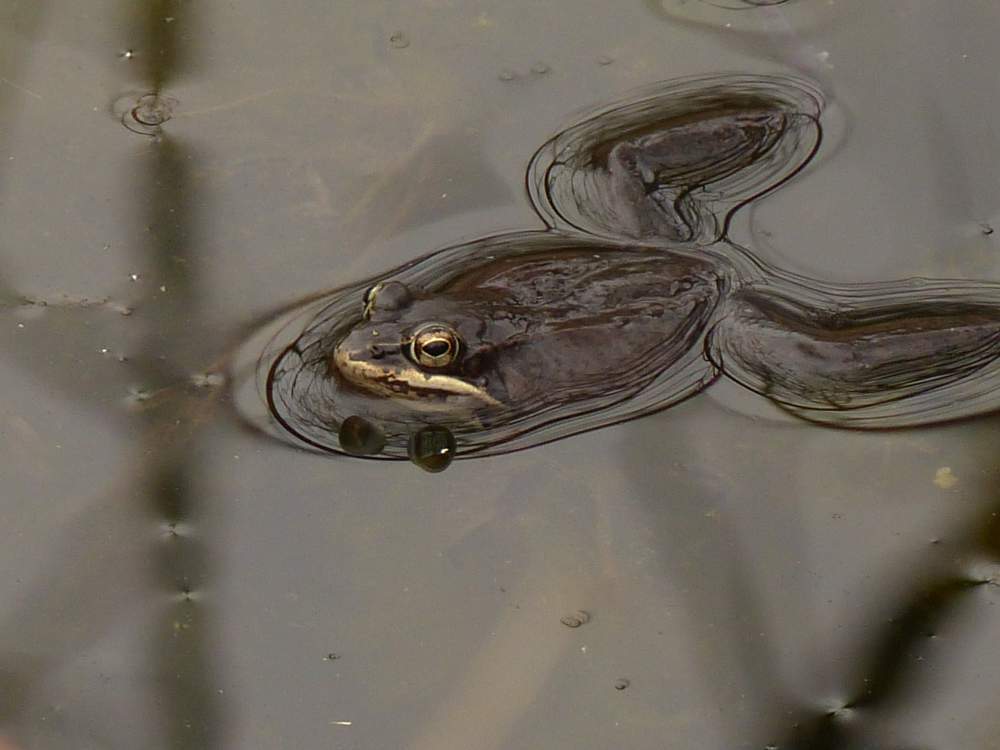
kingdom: Animalia
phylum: Chordata
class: Amphibia
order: Anura
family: Ranidae
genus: Lithobates
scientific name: Lithobates sylvaticus
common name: Wood frog
